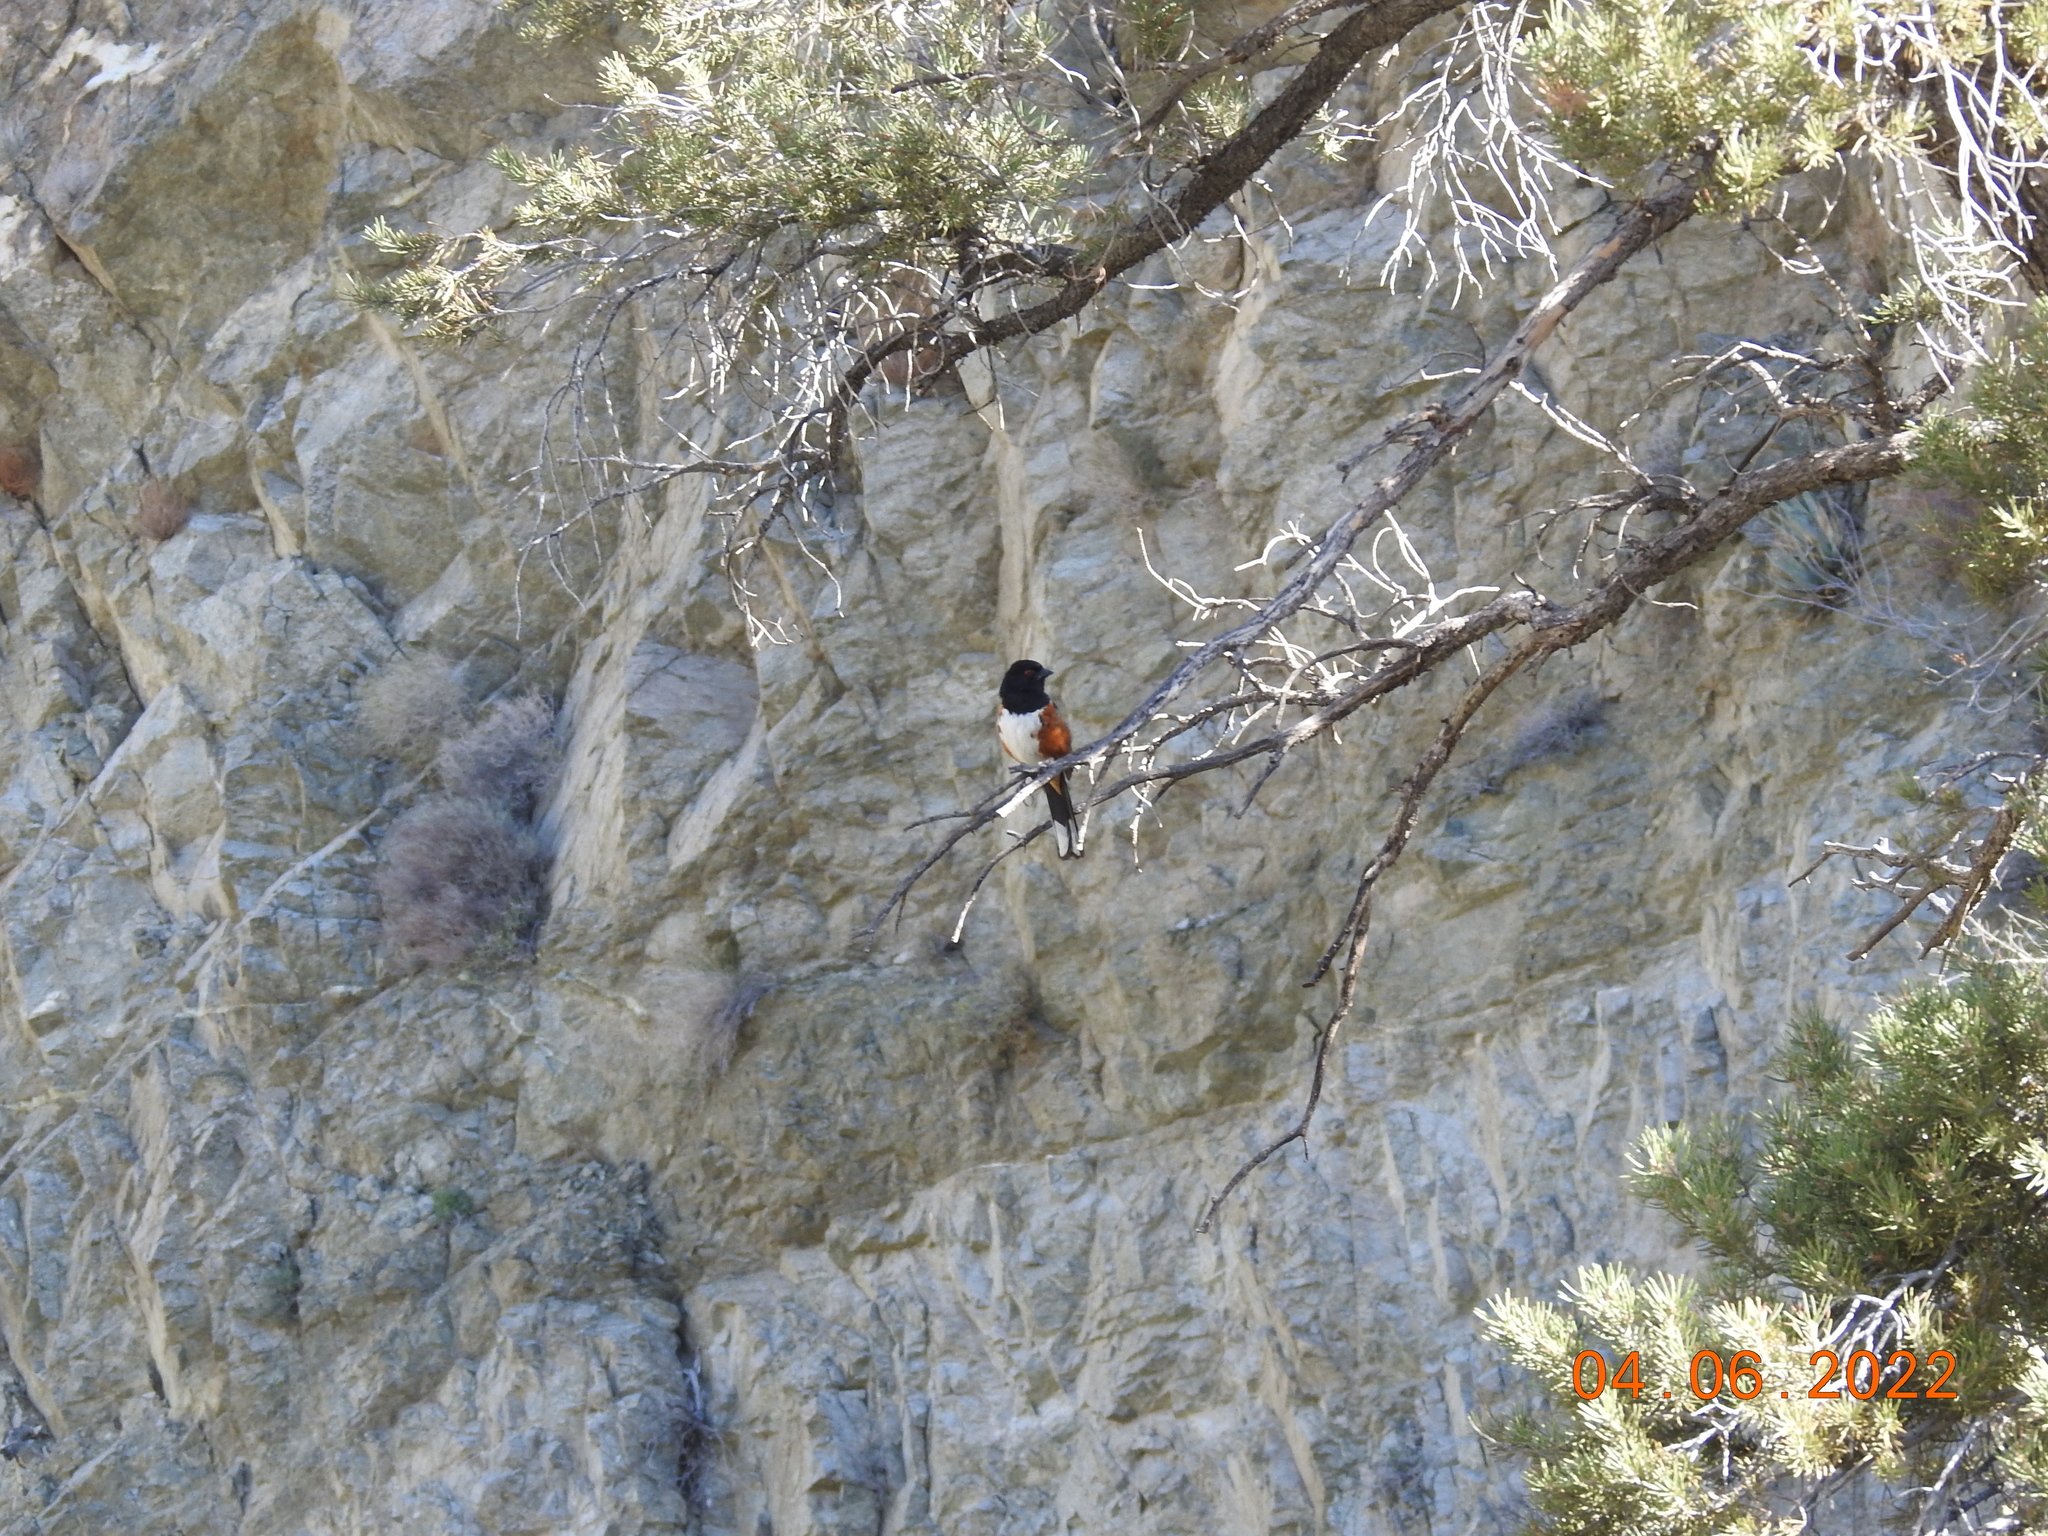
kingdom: Animalia
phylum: Chordata
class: Aves
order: Passeriformes
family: Passerellidae
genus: Pipilo
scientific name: Pipilo maculatus
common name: Spotted towhee
